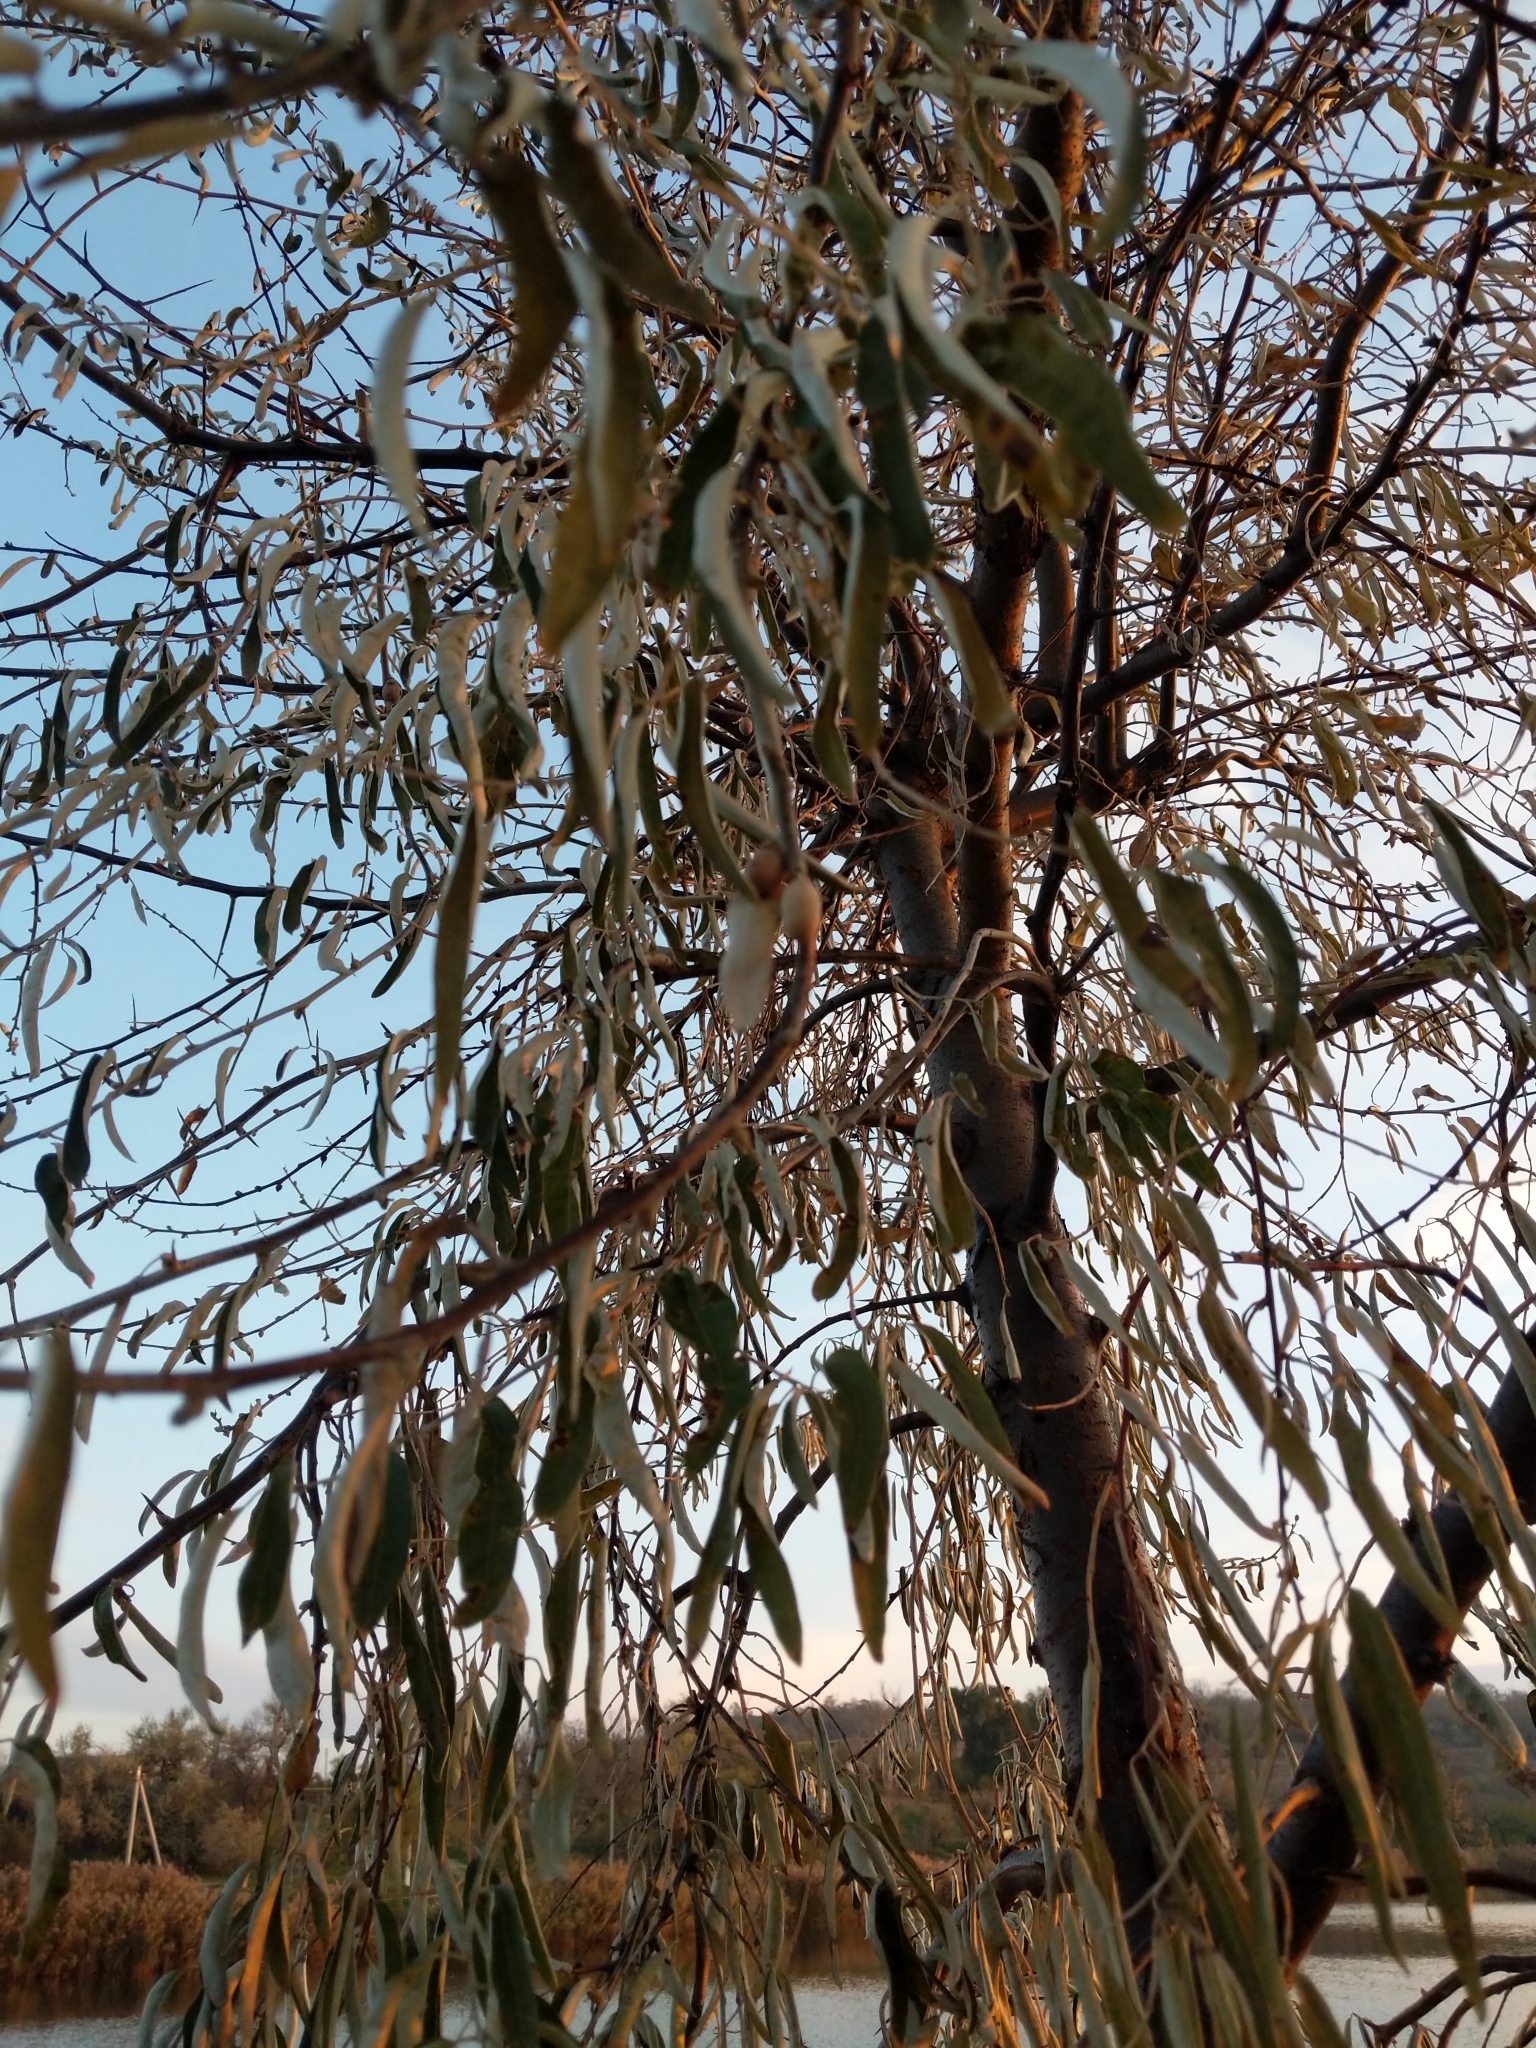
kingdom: Plantae
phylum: Tracheophyta
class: Magnoliopsida
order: Rosales
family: Elaeagnaceae
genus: Elaeagnus
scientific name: Elaeagnus angustifolia
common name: Russian olive
